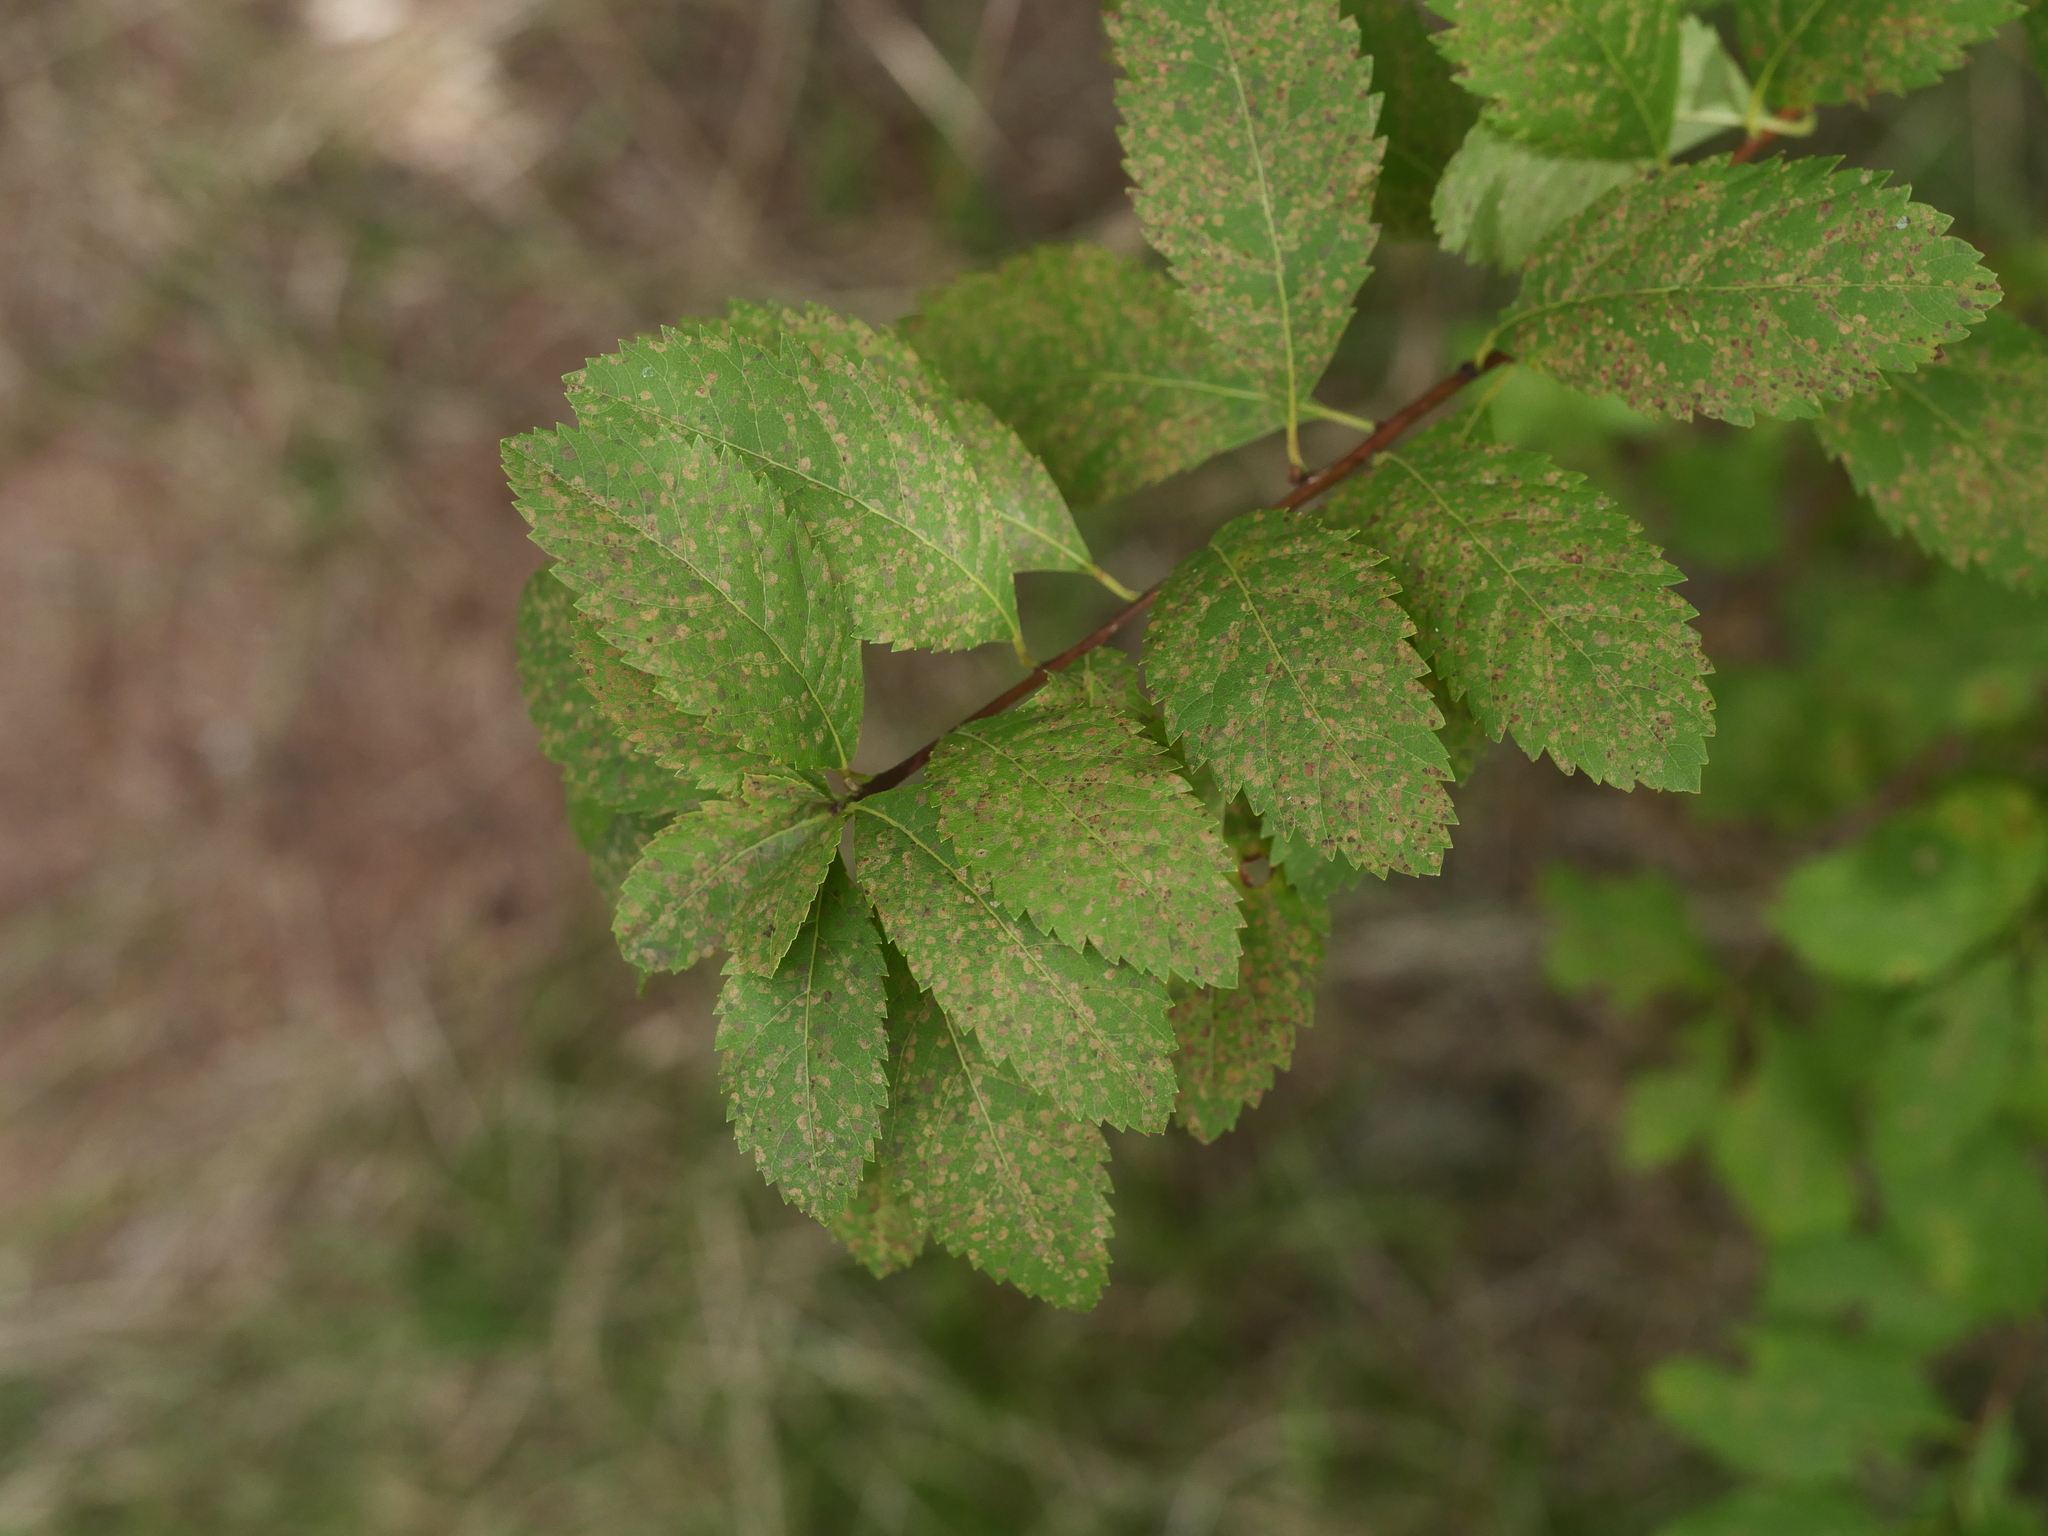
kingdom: Plantae
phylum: Tracheophyta
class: Magnoliopsida
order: Rosales
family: Rosaceae
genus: Spiraea
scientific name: Spiraea alba
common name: Pale bridewort
